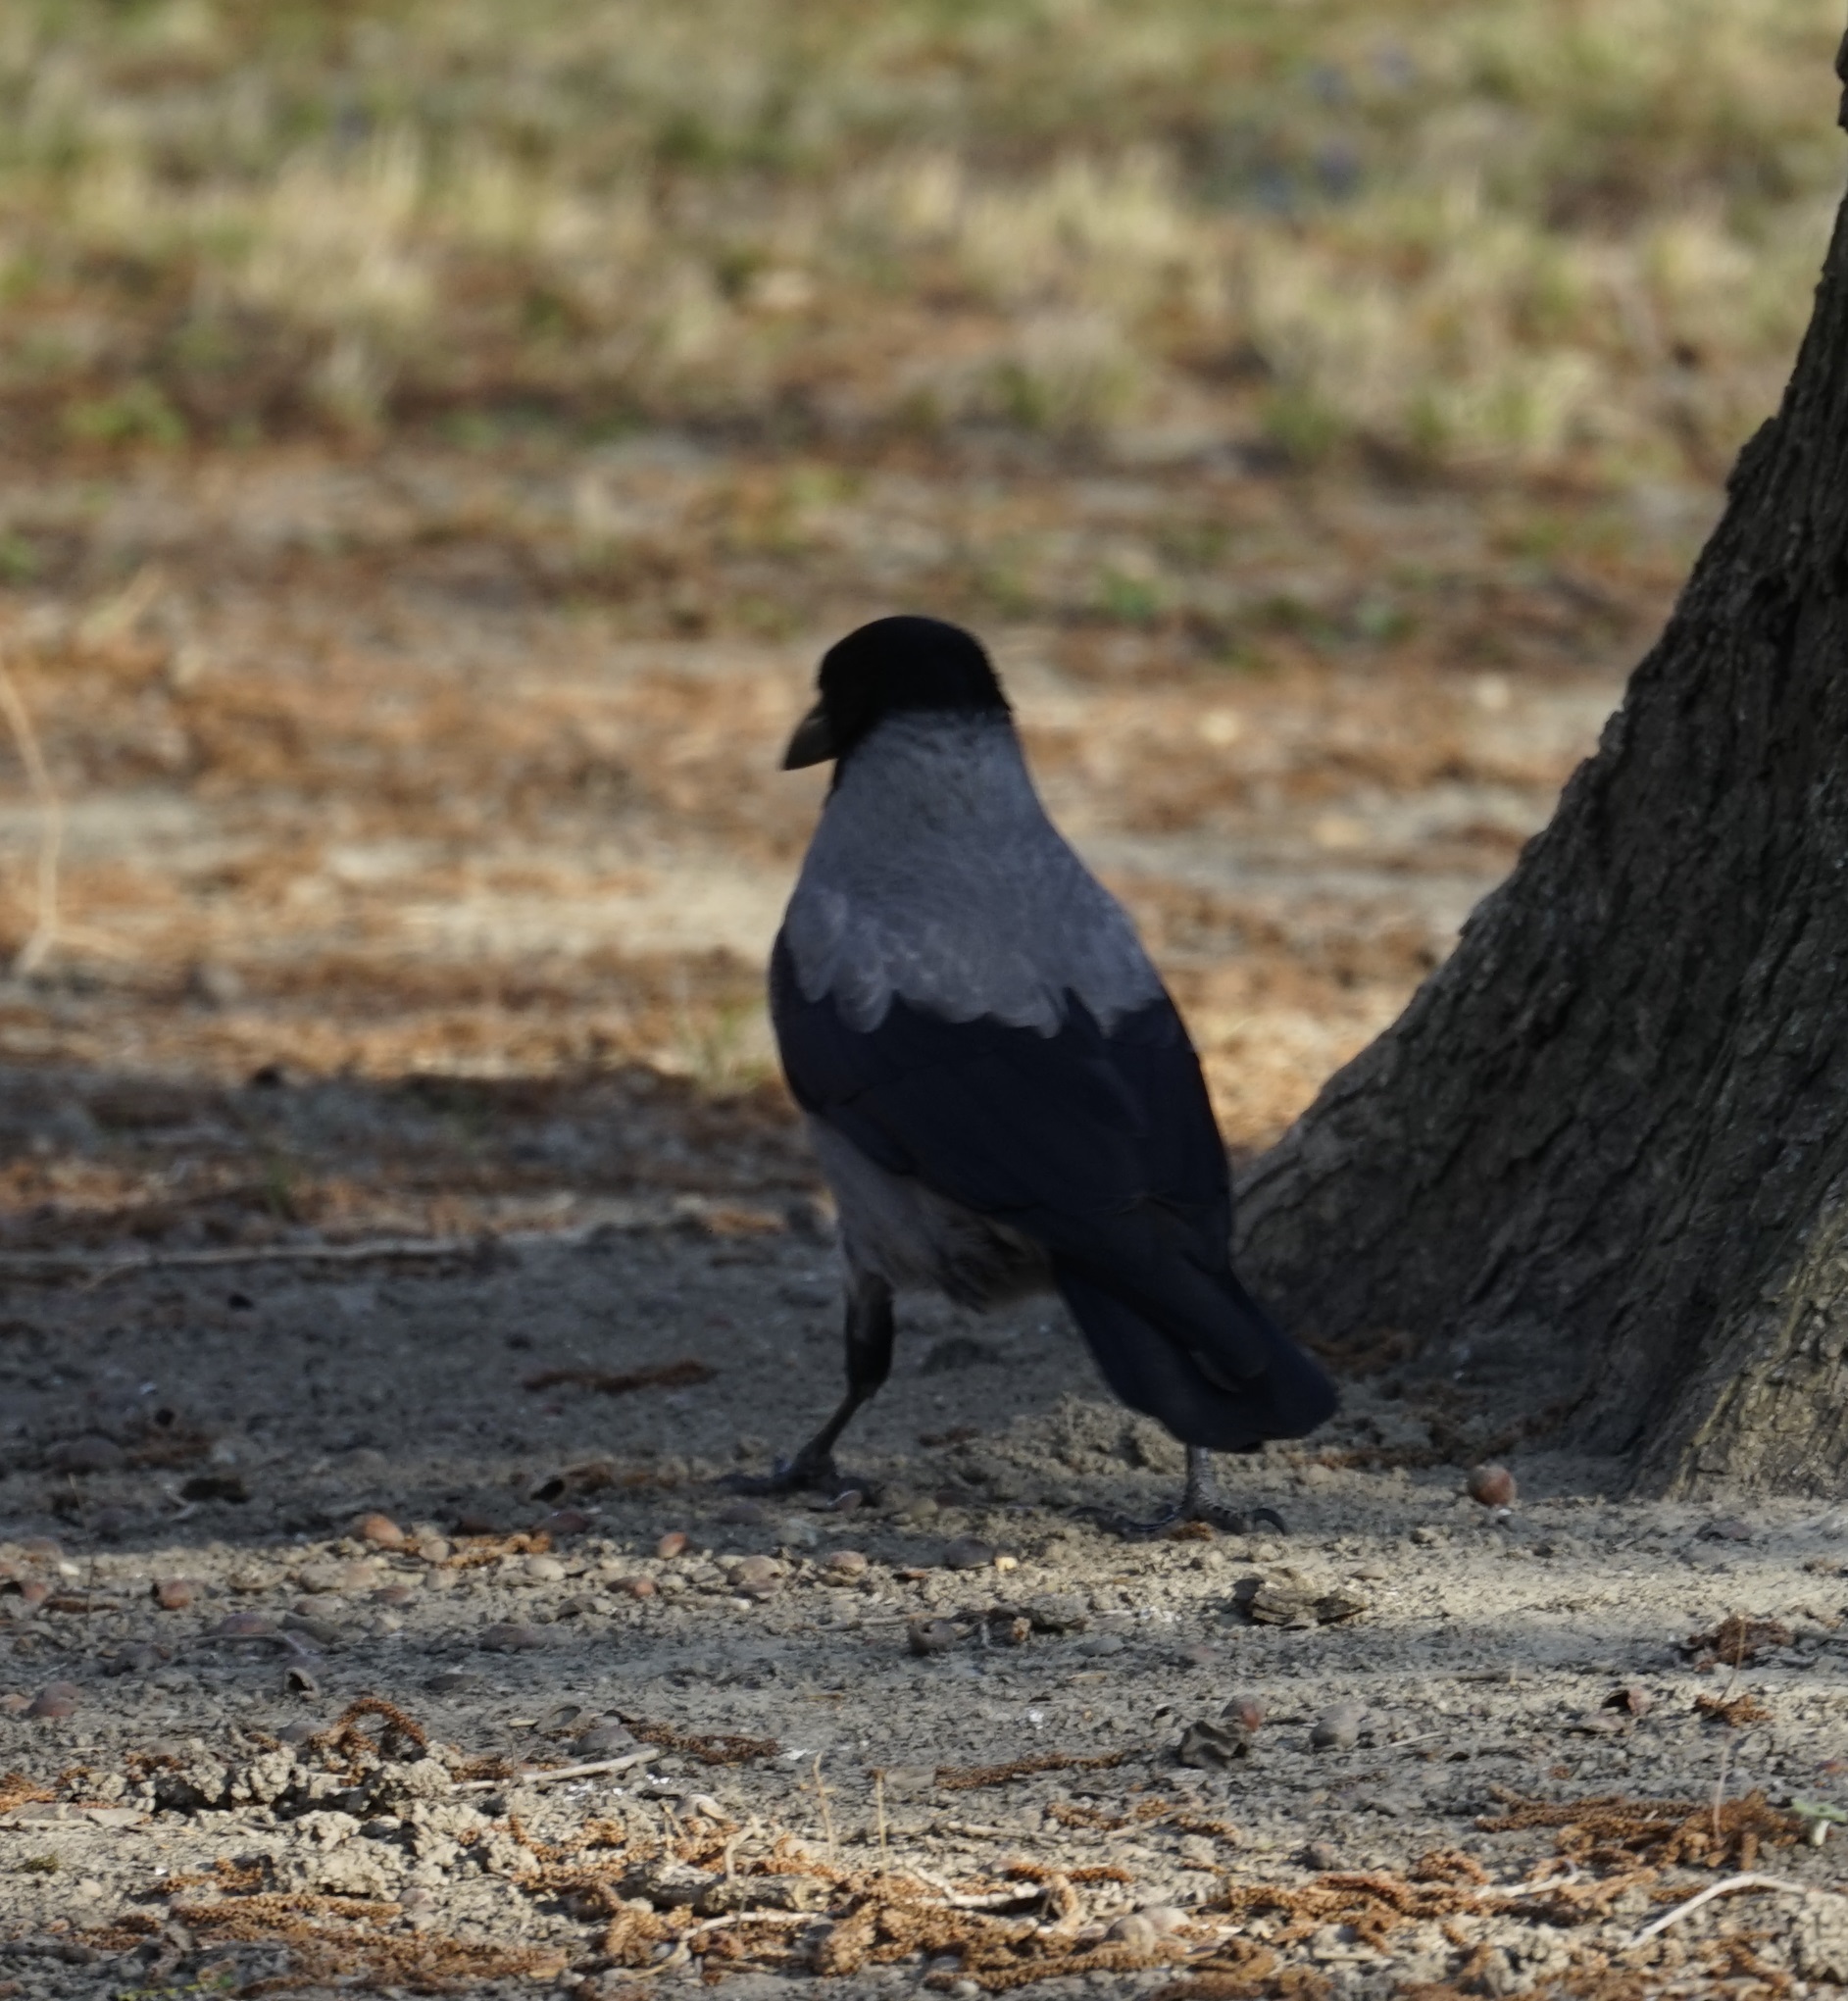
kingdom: Animalia
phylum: Chordata
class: Aves
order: Passeriformes
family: Corvidae
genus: Corvus
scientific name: Corvus cornix
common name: Hooded crow
